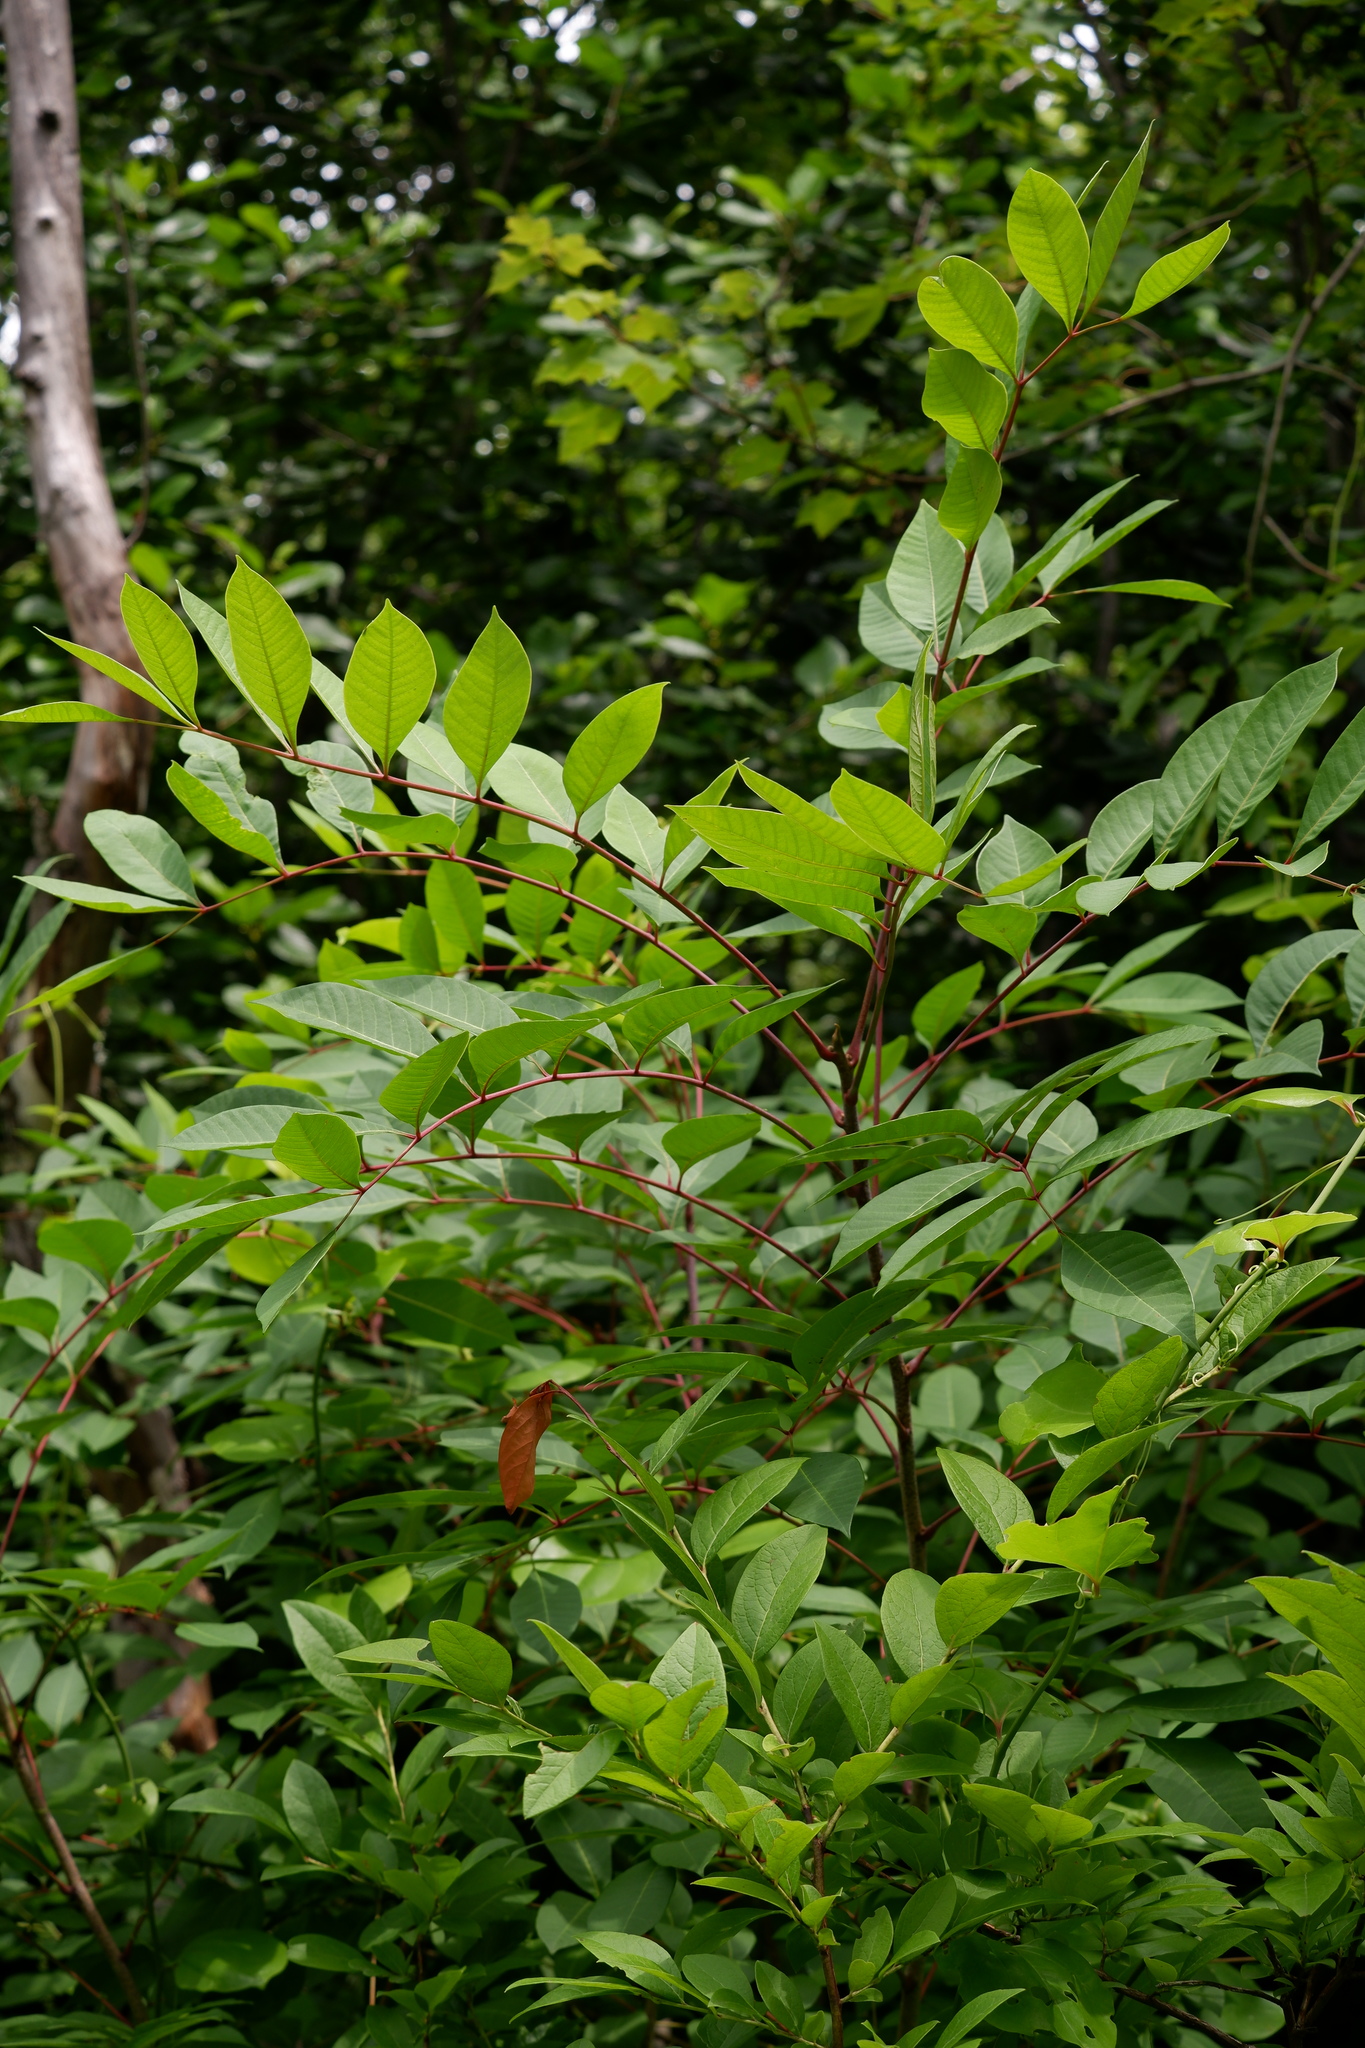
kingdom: Plantae
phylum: Tracheophyta
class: Magnoliopsida
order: Sapindales
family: Anacardiaceae
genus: Toxicodendron
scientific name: Toxicodendron vernix
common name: Poison sumac
